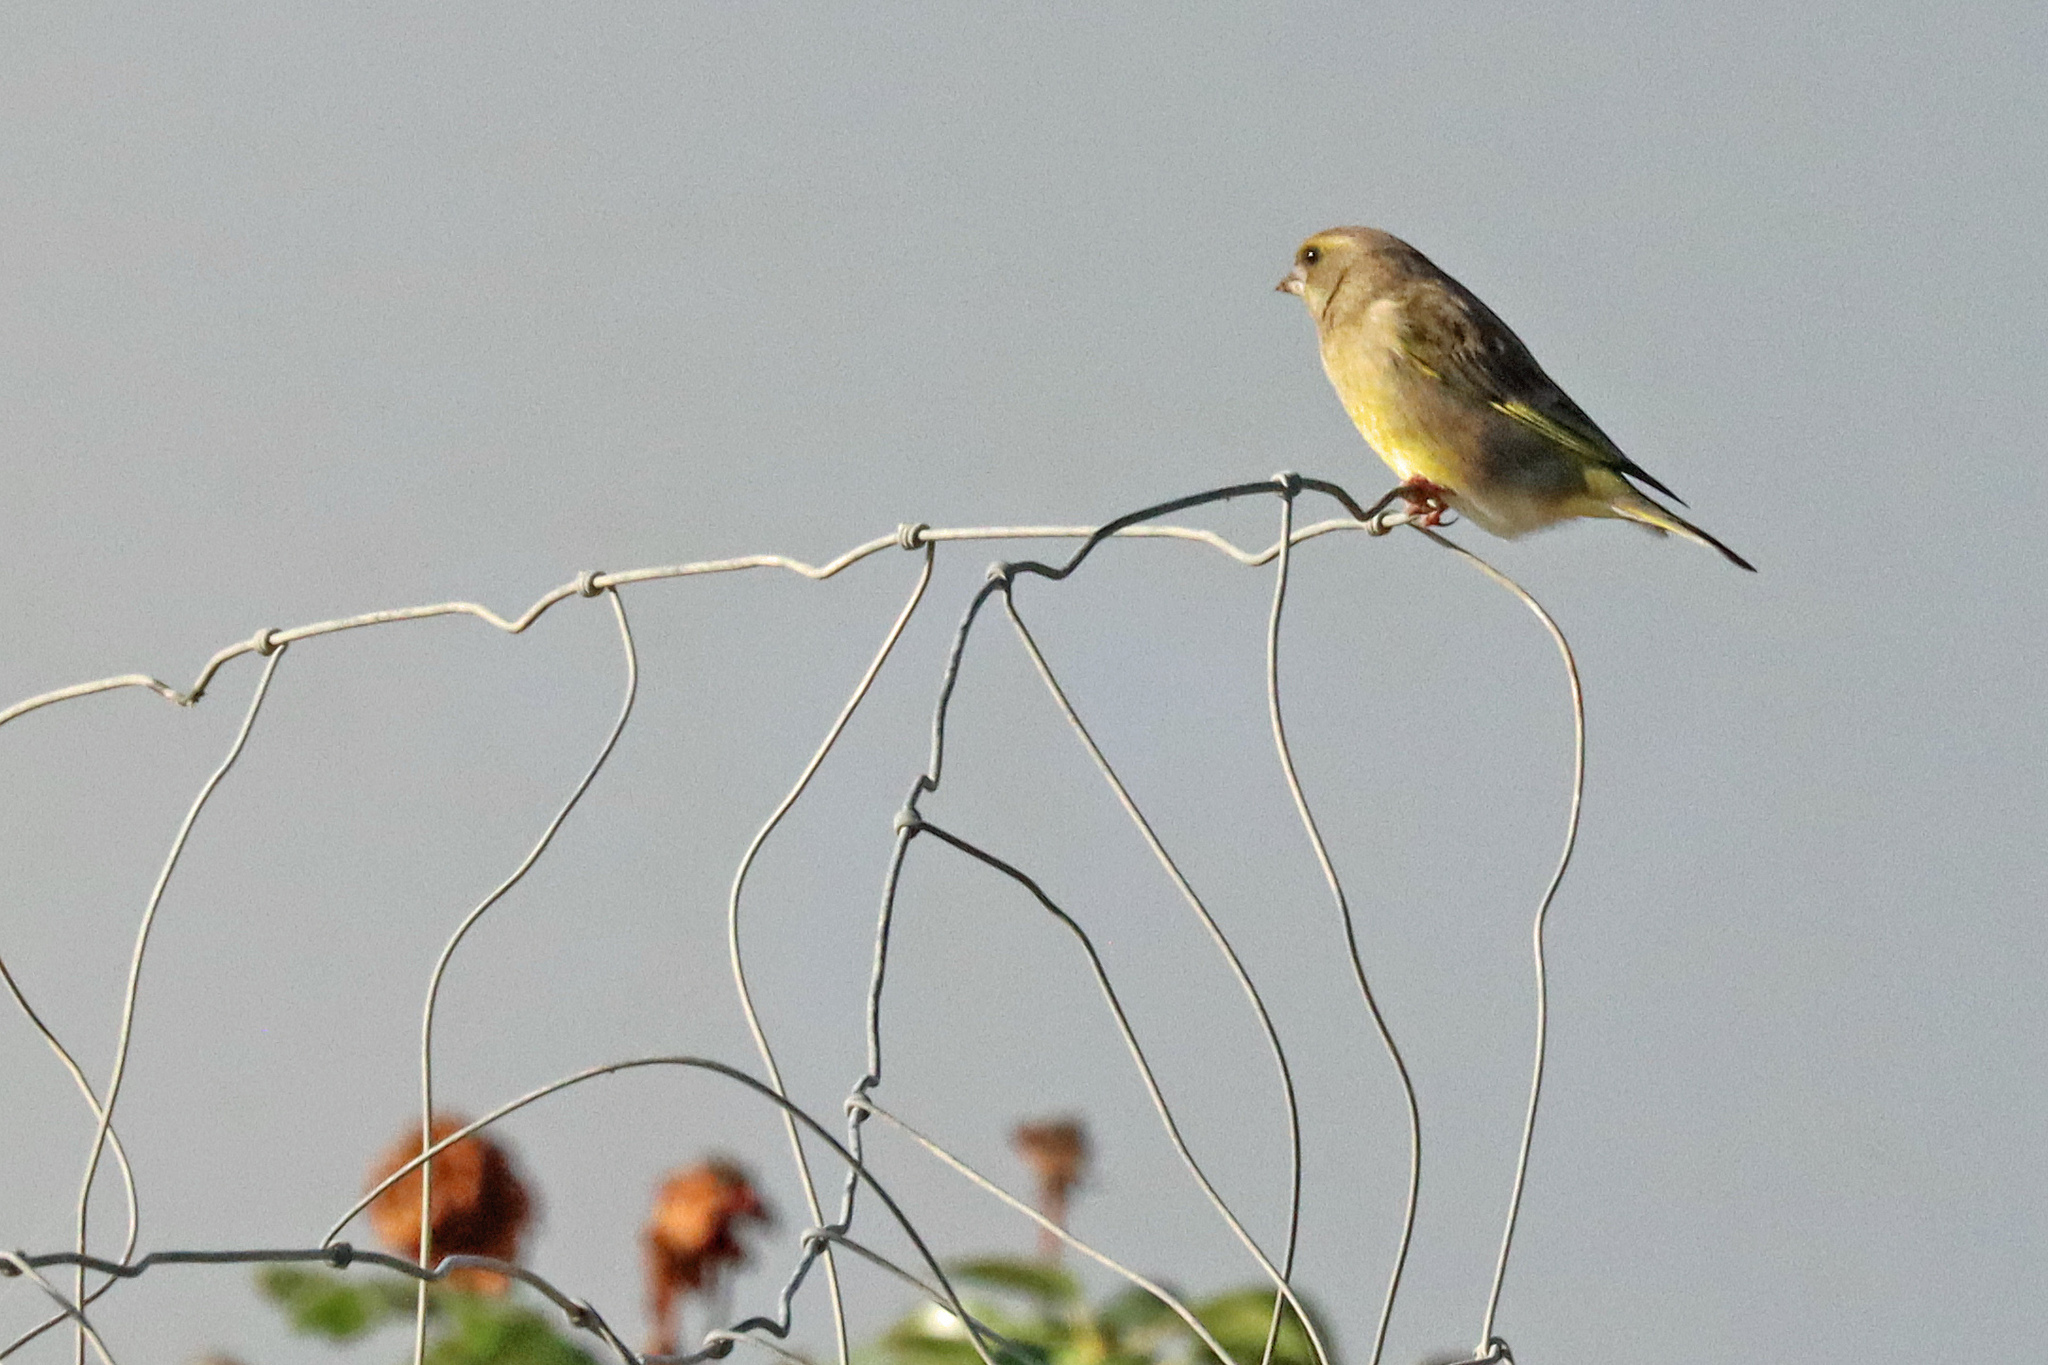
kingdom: Plantae
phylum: Tracheophyta
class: Liliopsida
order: Poales
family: Poaceae
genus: Chloris
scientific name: Chloris chloris
